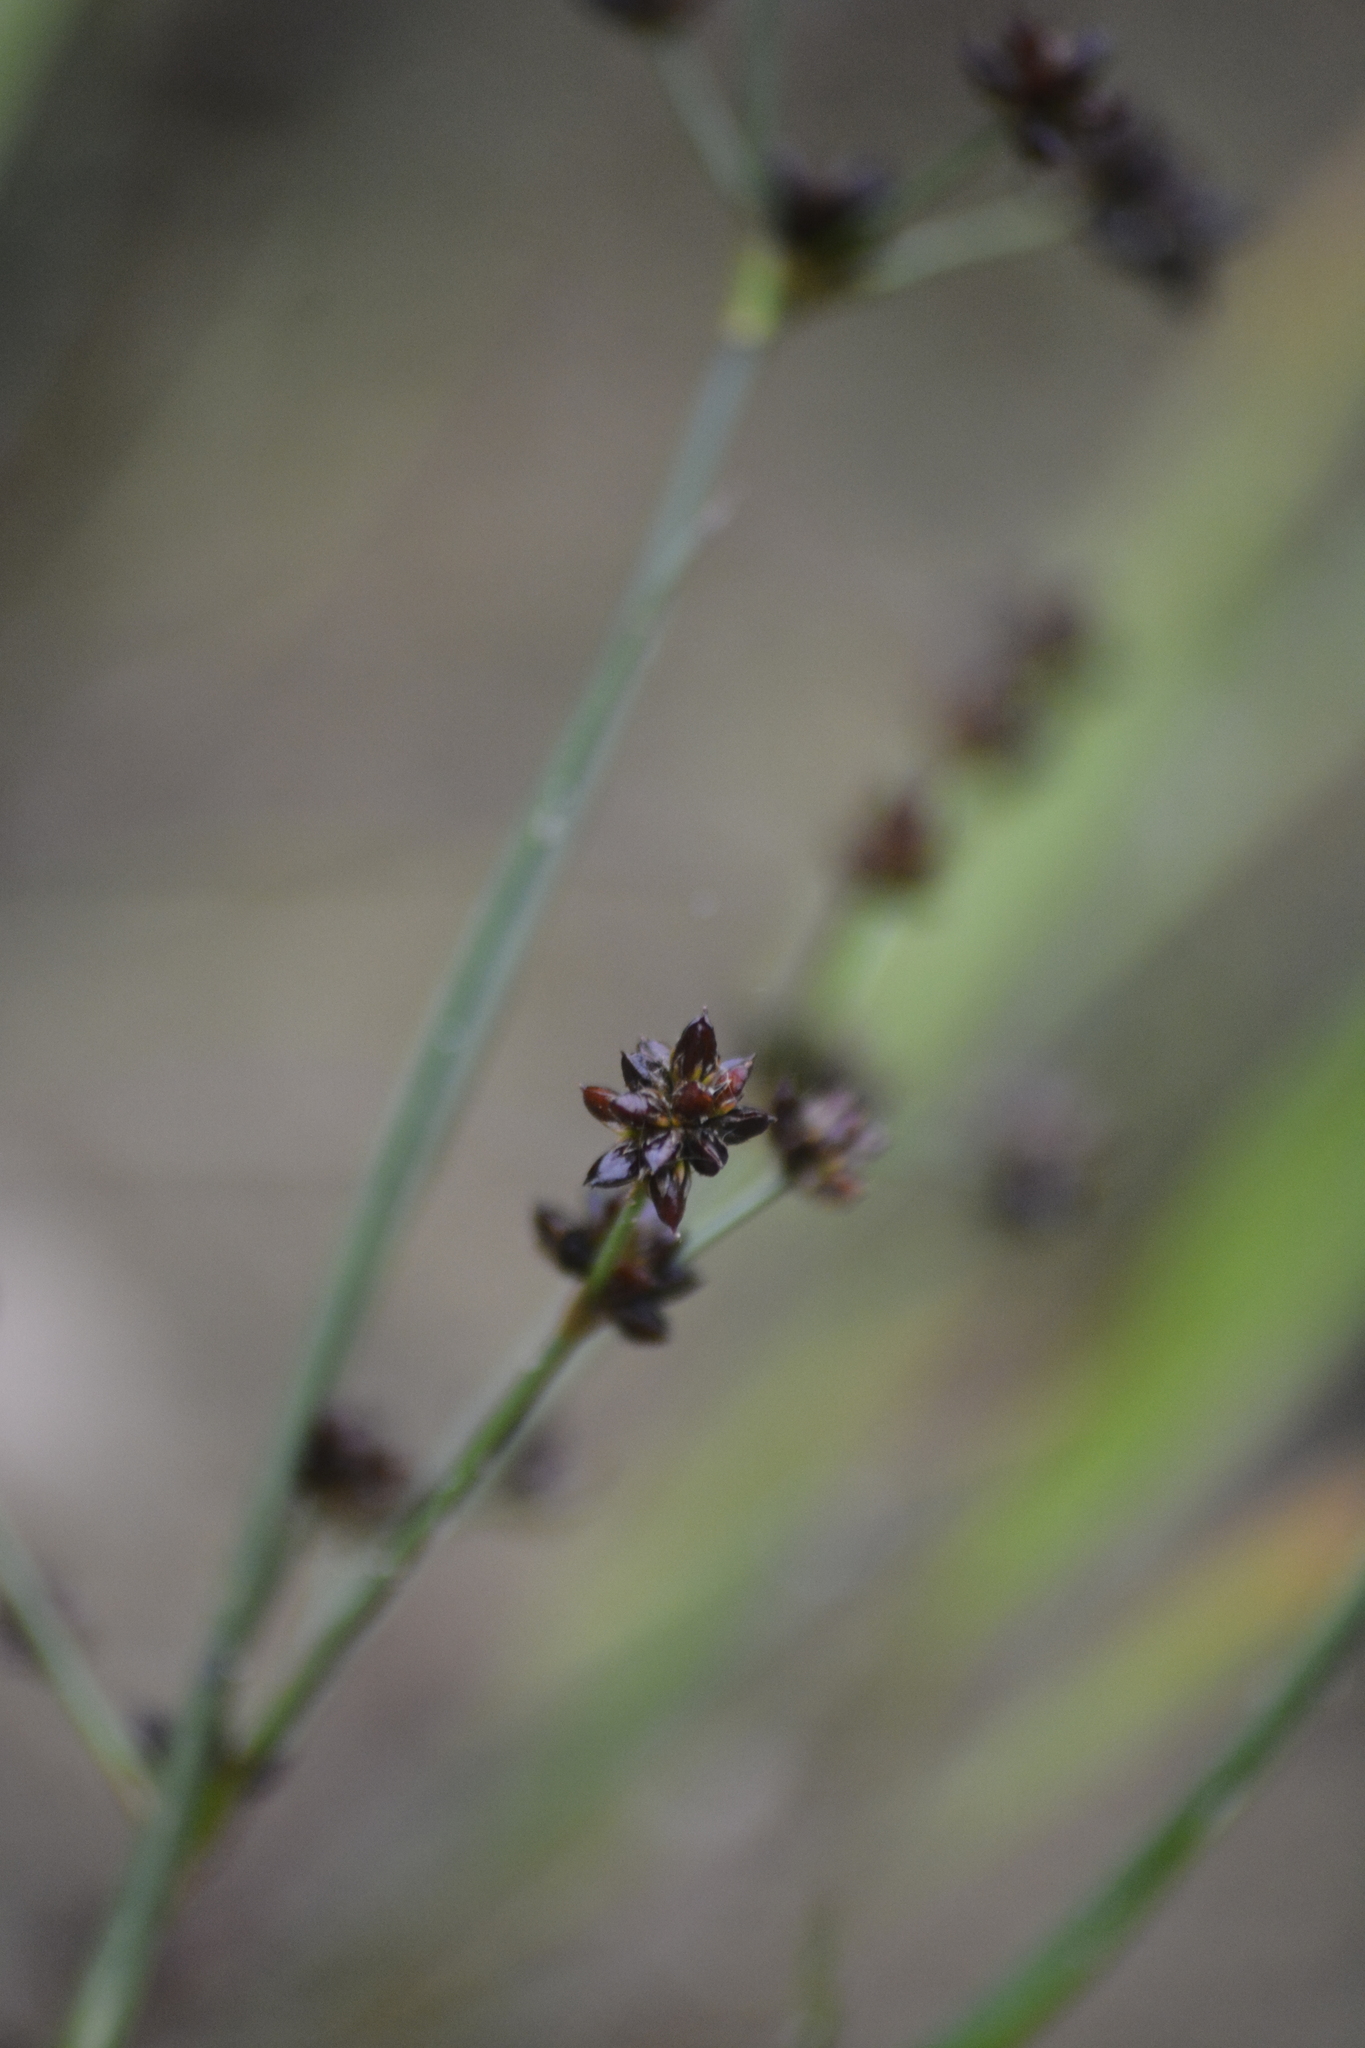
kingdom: Plantae
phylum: Tracheophyta
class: Liliopsida
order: Poales
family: Juncaceae
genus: Juncus
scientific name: Juncus articulatus
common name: Jointed rush
